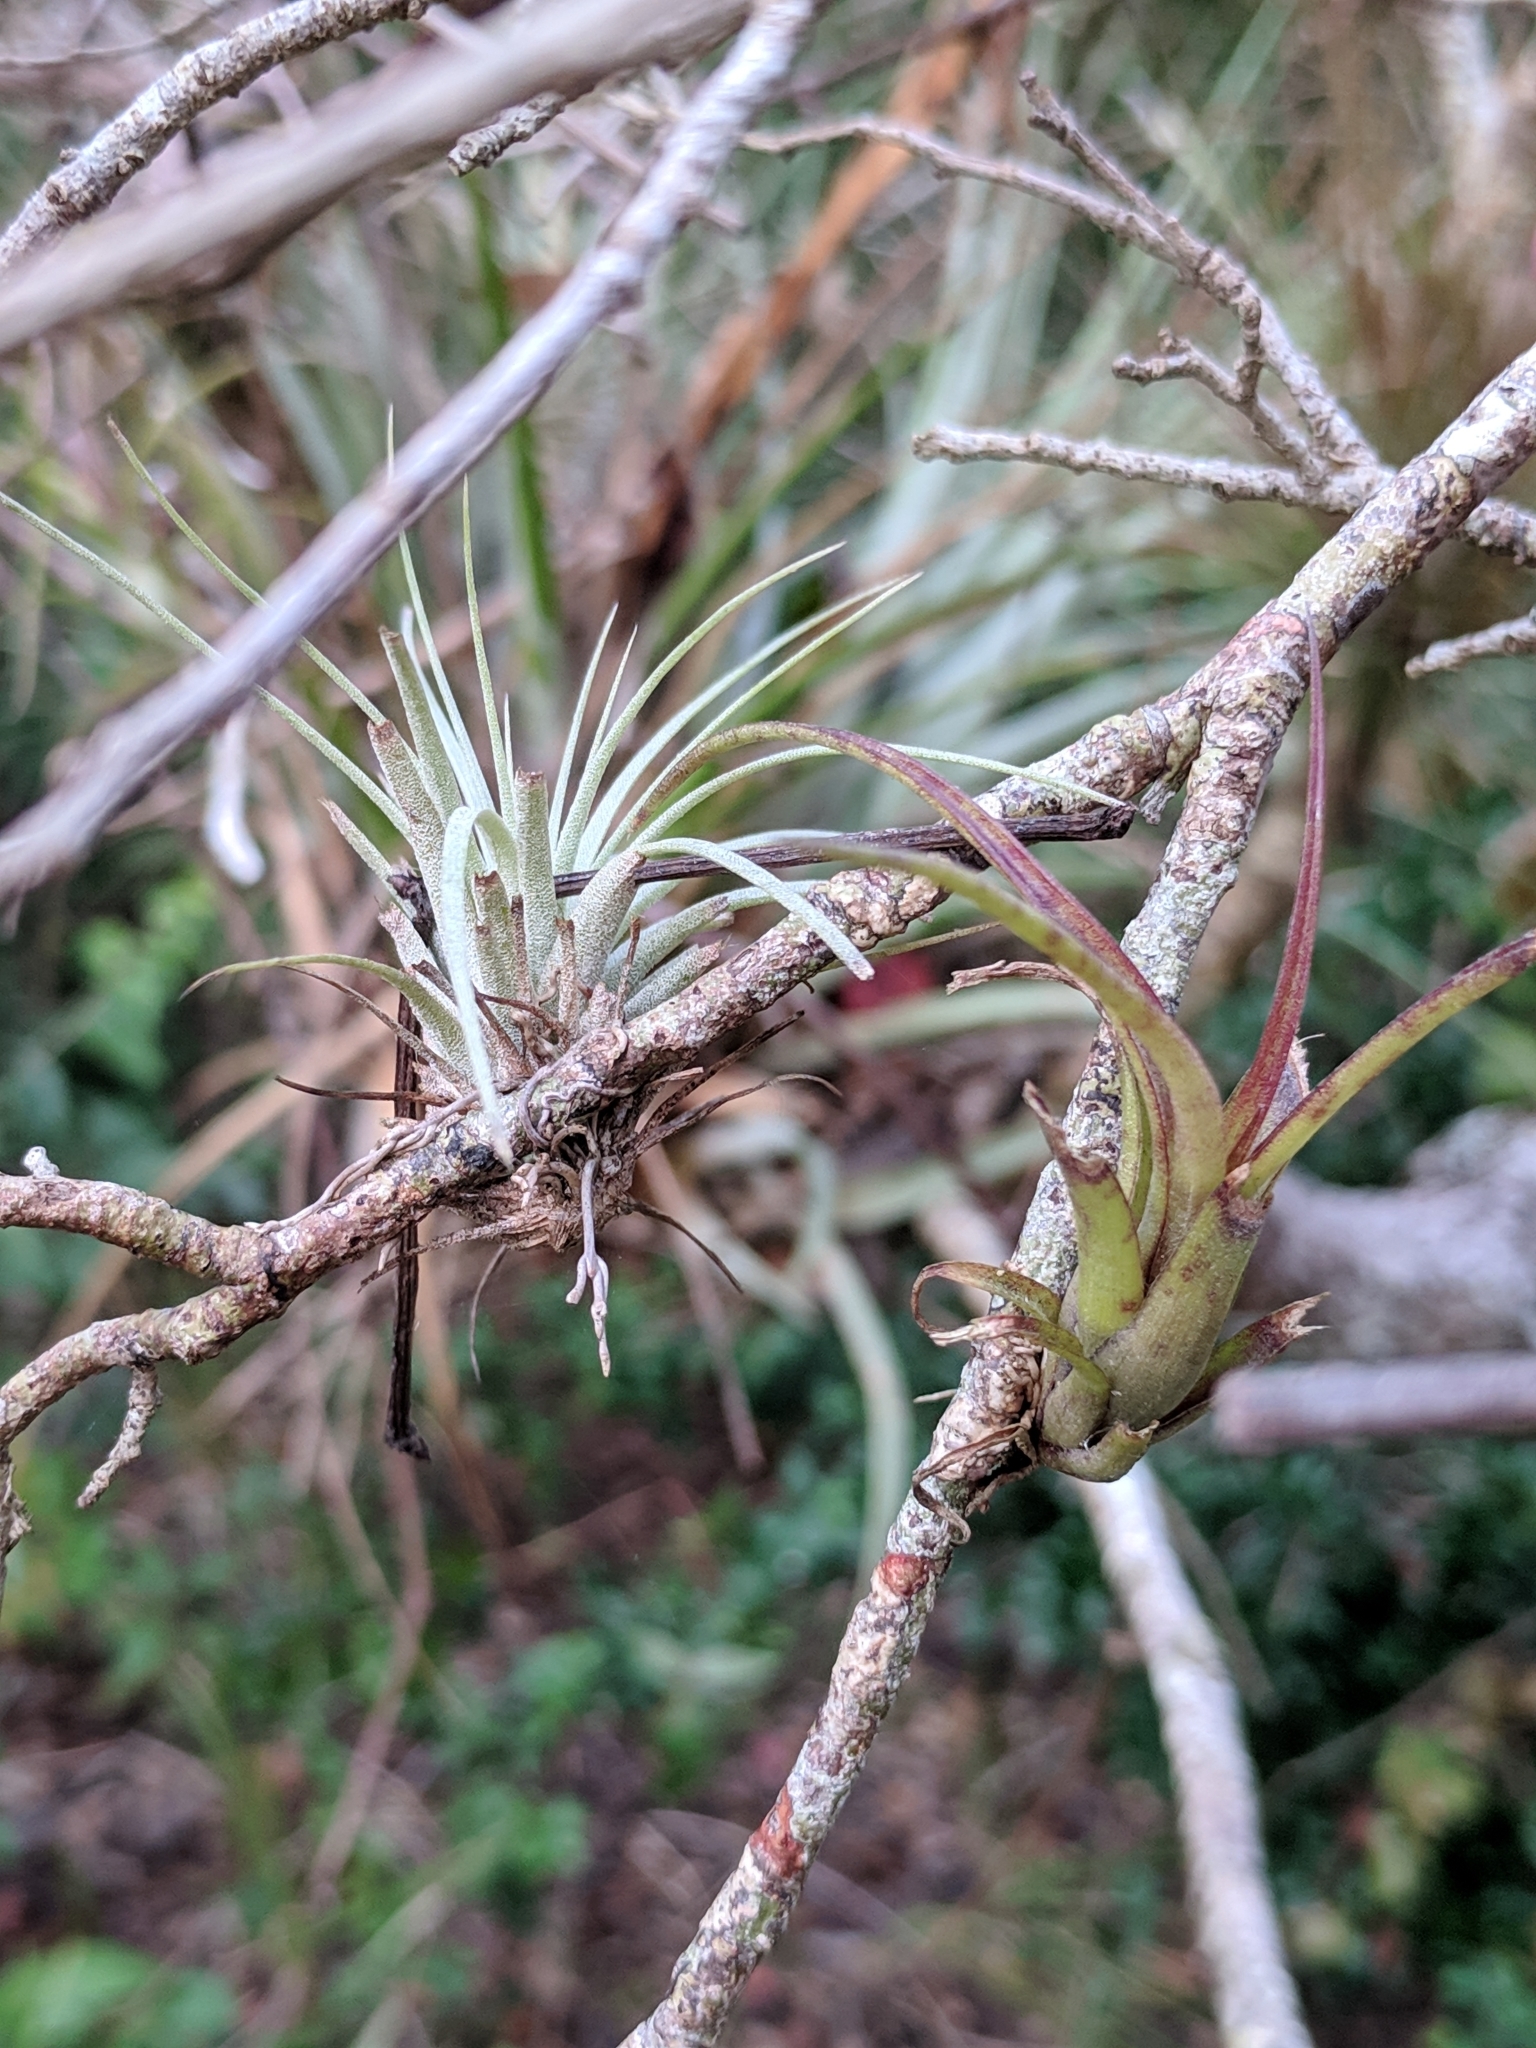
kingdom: Plantae
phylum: Tracheophyta
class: Liliopsida
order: Poales
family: Bromeliaceae
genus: Tillandsia
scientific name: Tillandsia balbisiana
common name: Northern needleleaf
